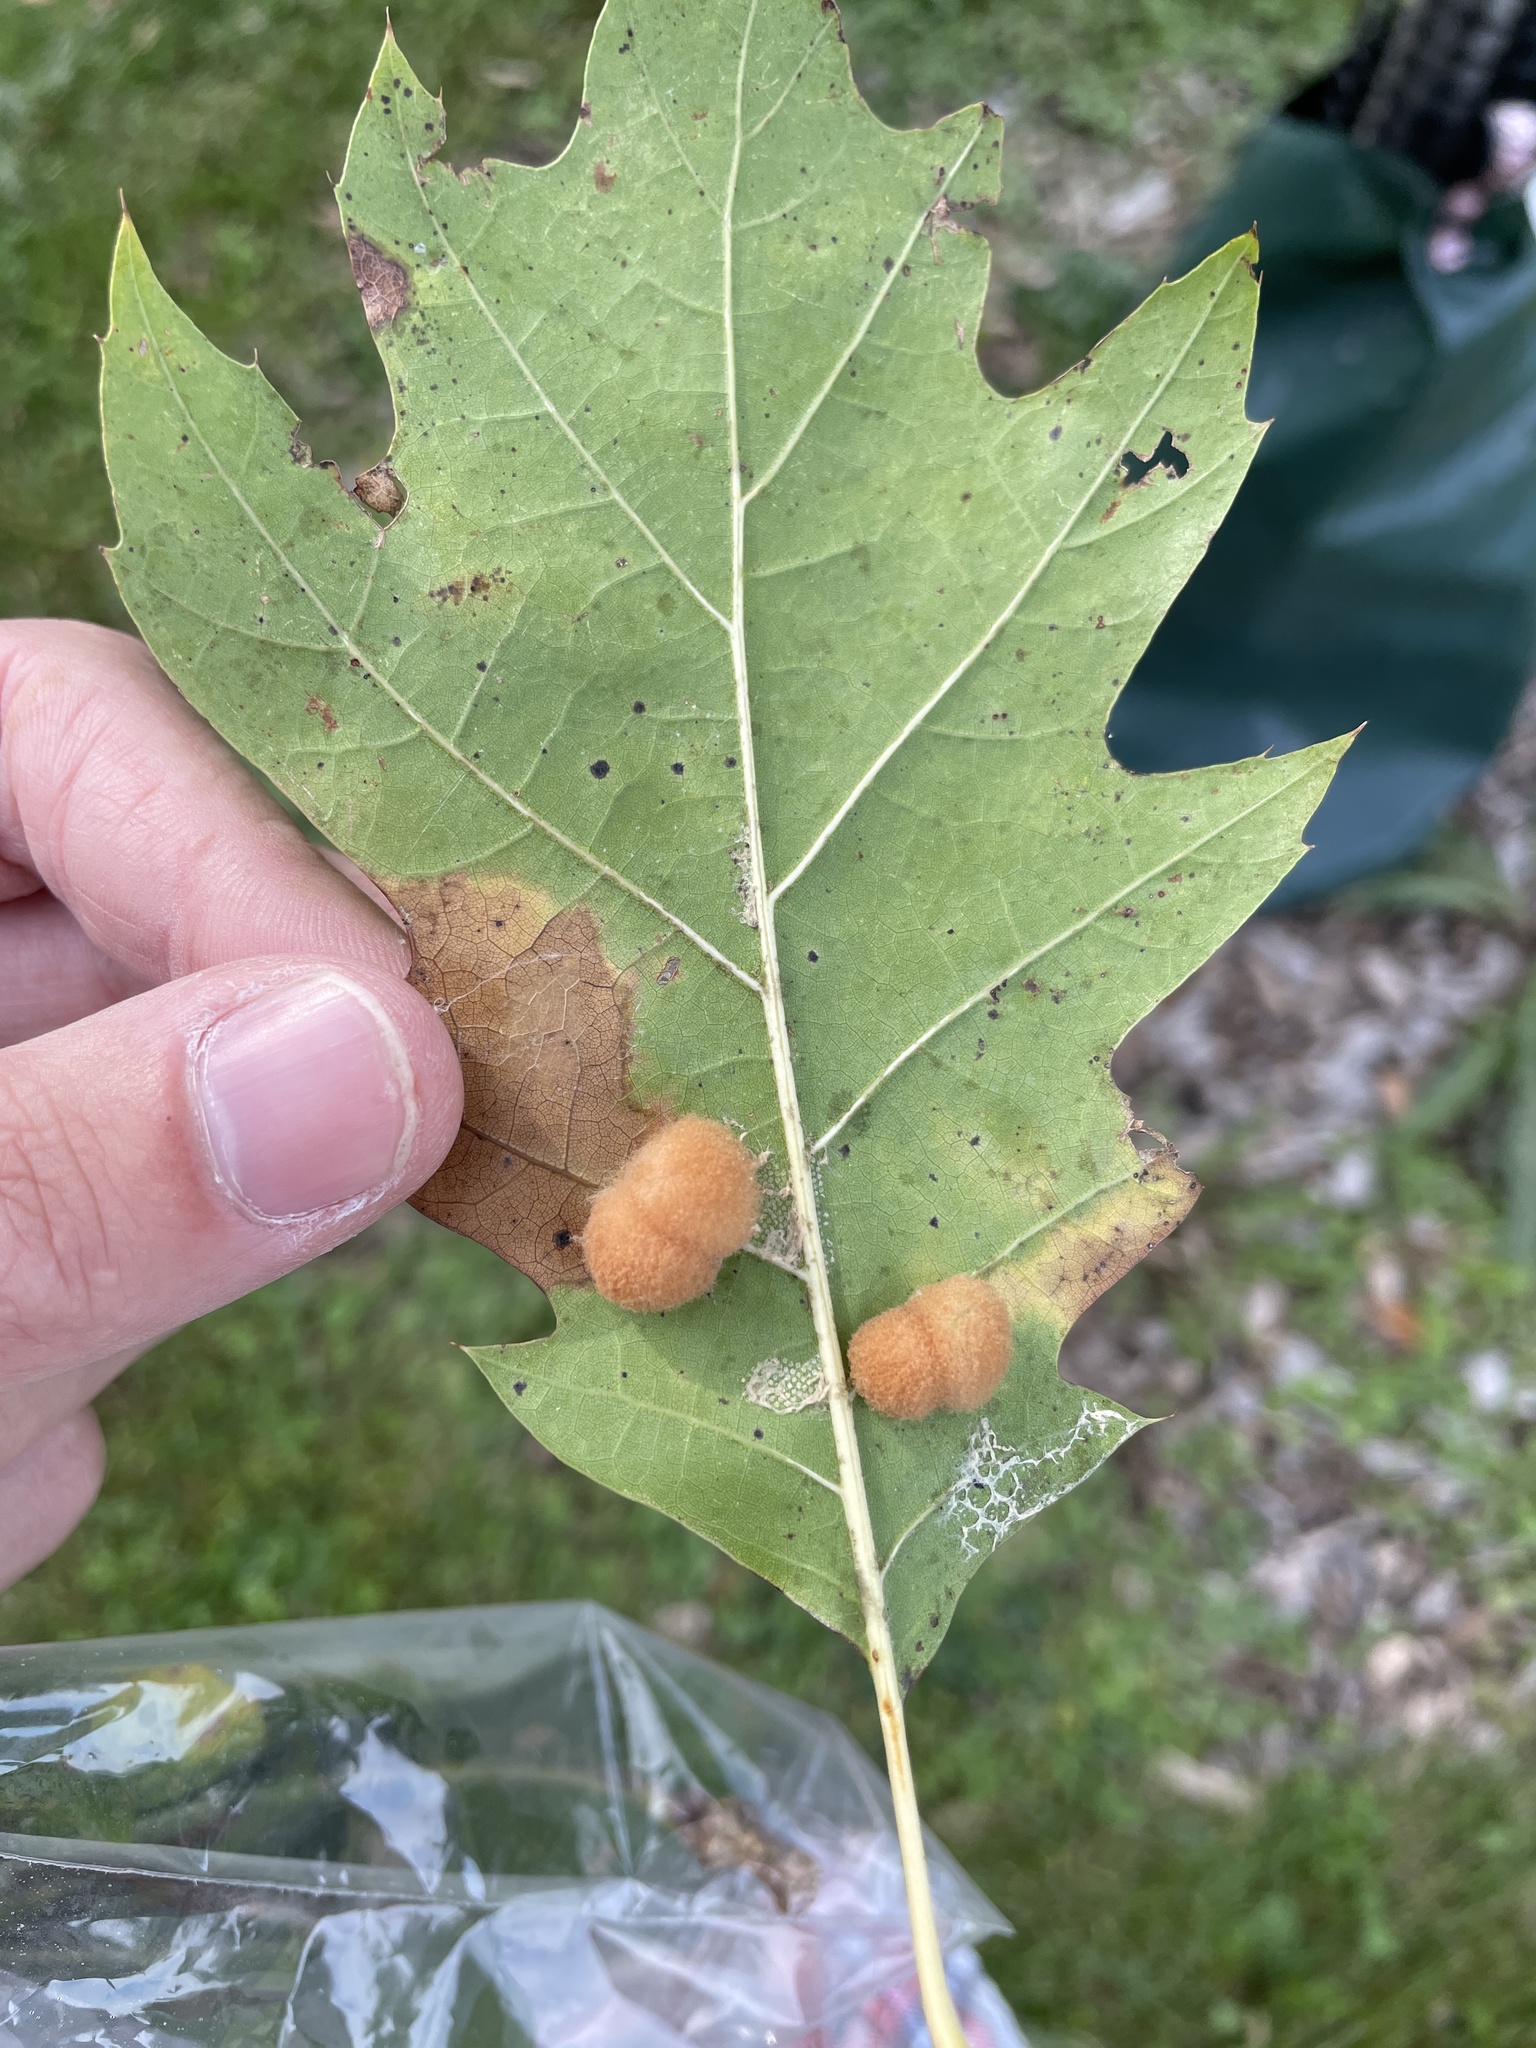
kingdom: Animalia
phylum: Arthropoda
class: Insecta
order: Hymenoptera
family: Cynipidae
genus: Callirhytis
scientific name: Callirhytis
